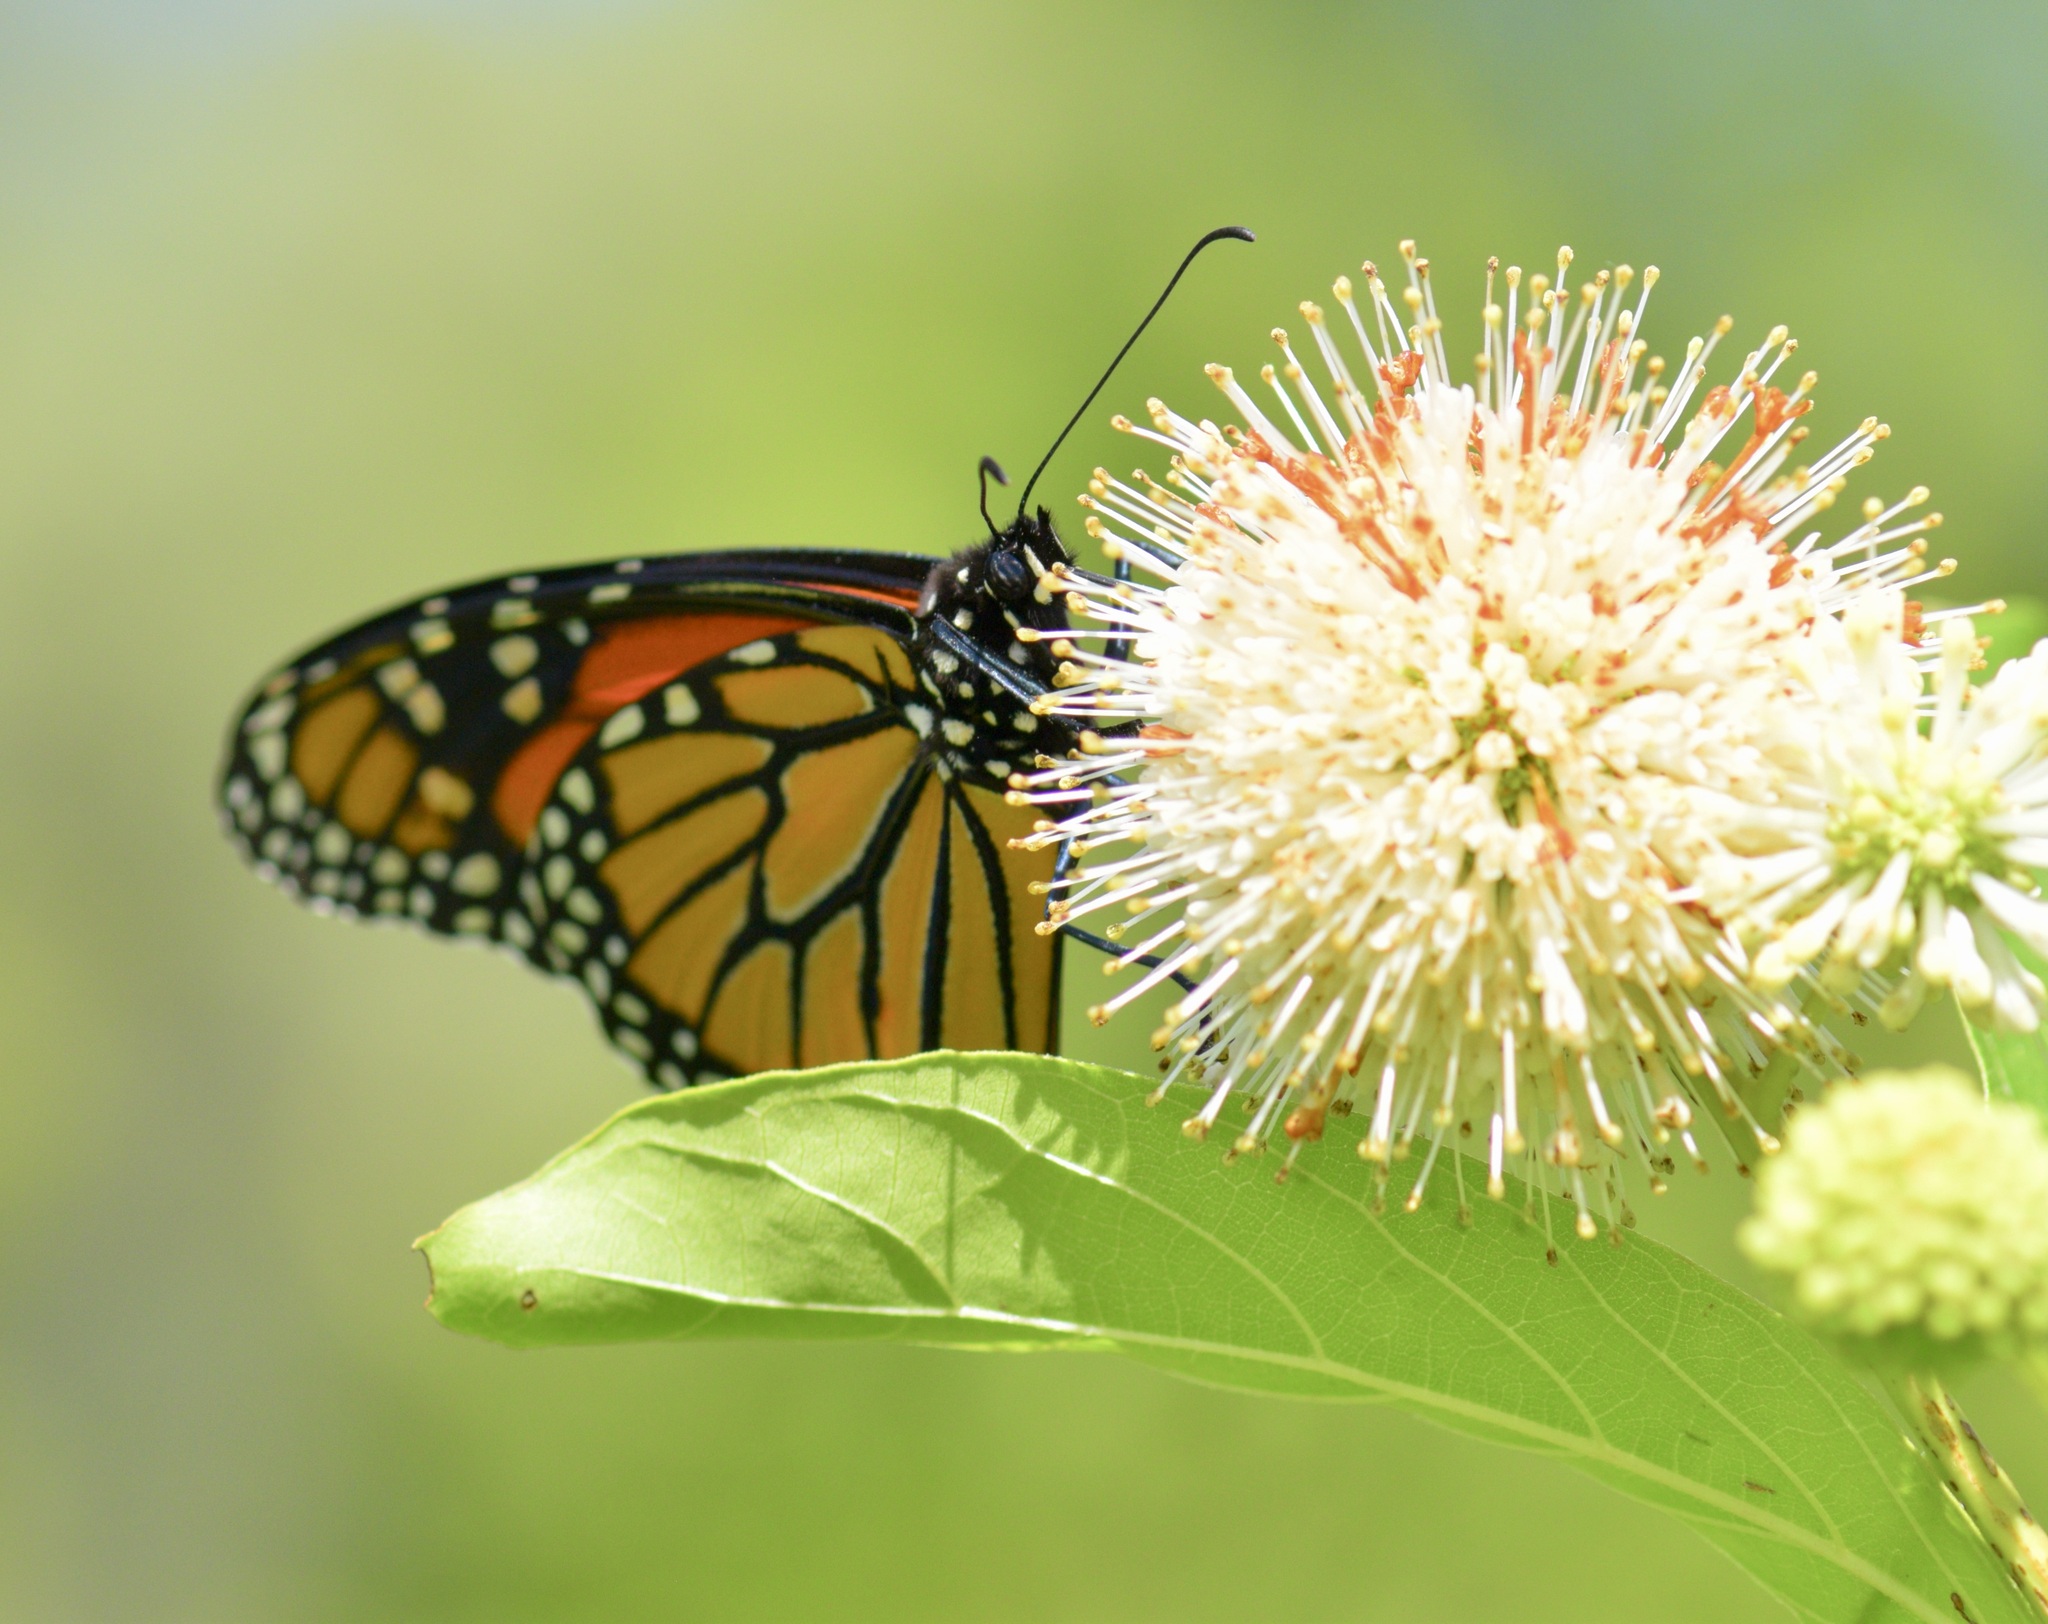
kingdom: Animalia
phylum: Arthropoda
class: Insecta
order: Lepidoptera
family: Nymphalidae
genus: Danaus
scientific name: Danaus plexippus
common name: Monarch
